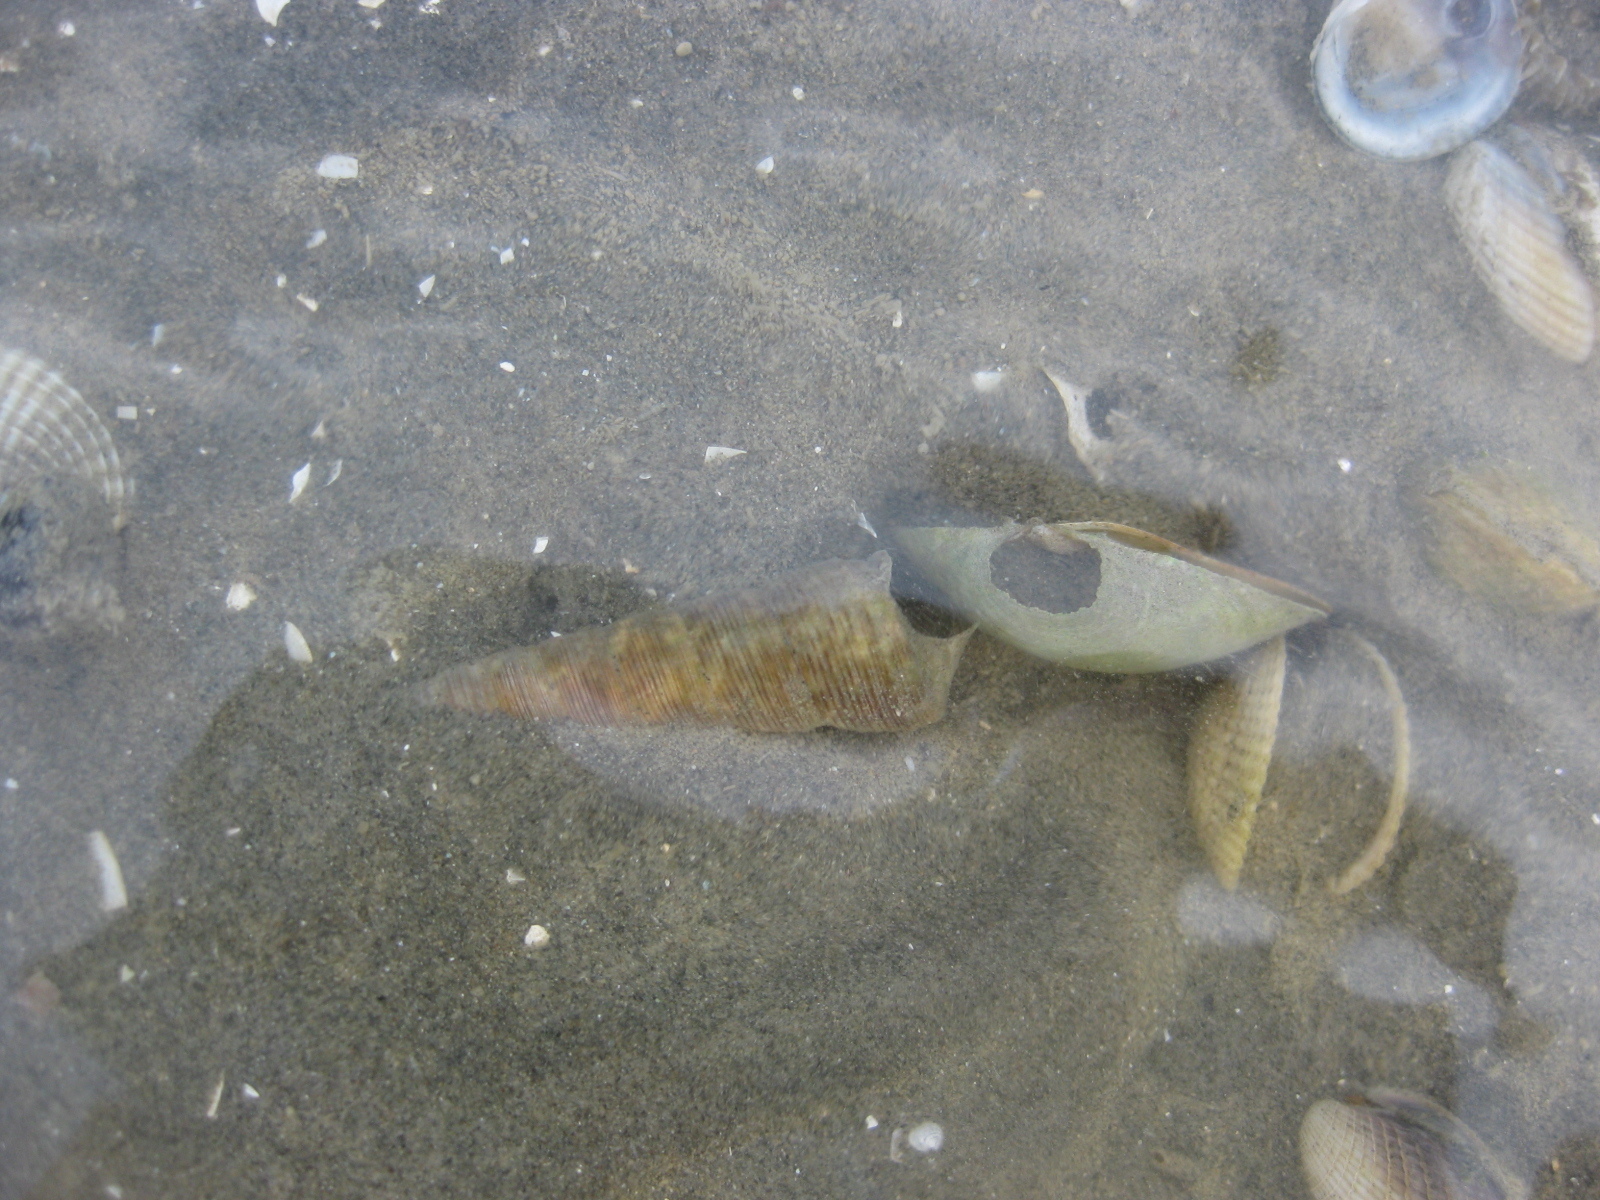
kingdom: Animalia
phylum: Mollusca
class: Gastropoda
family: Turritellidae
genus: Maoricolpus
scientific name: Maoricolpus roseus
